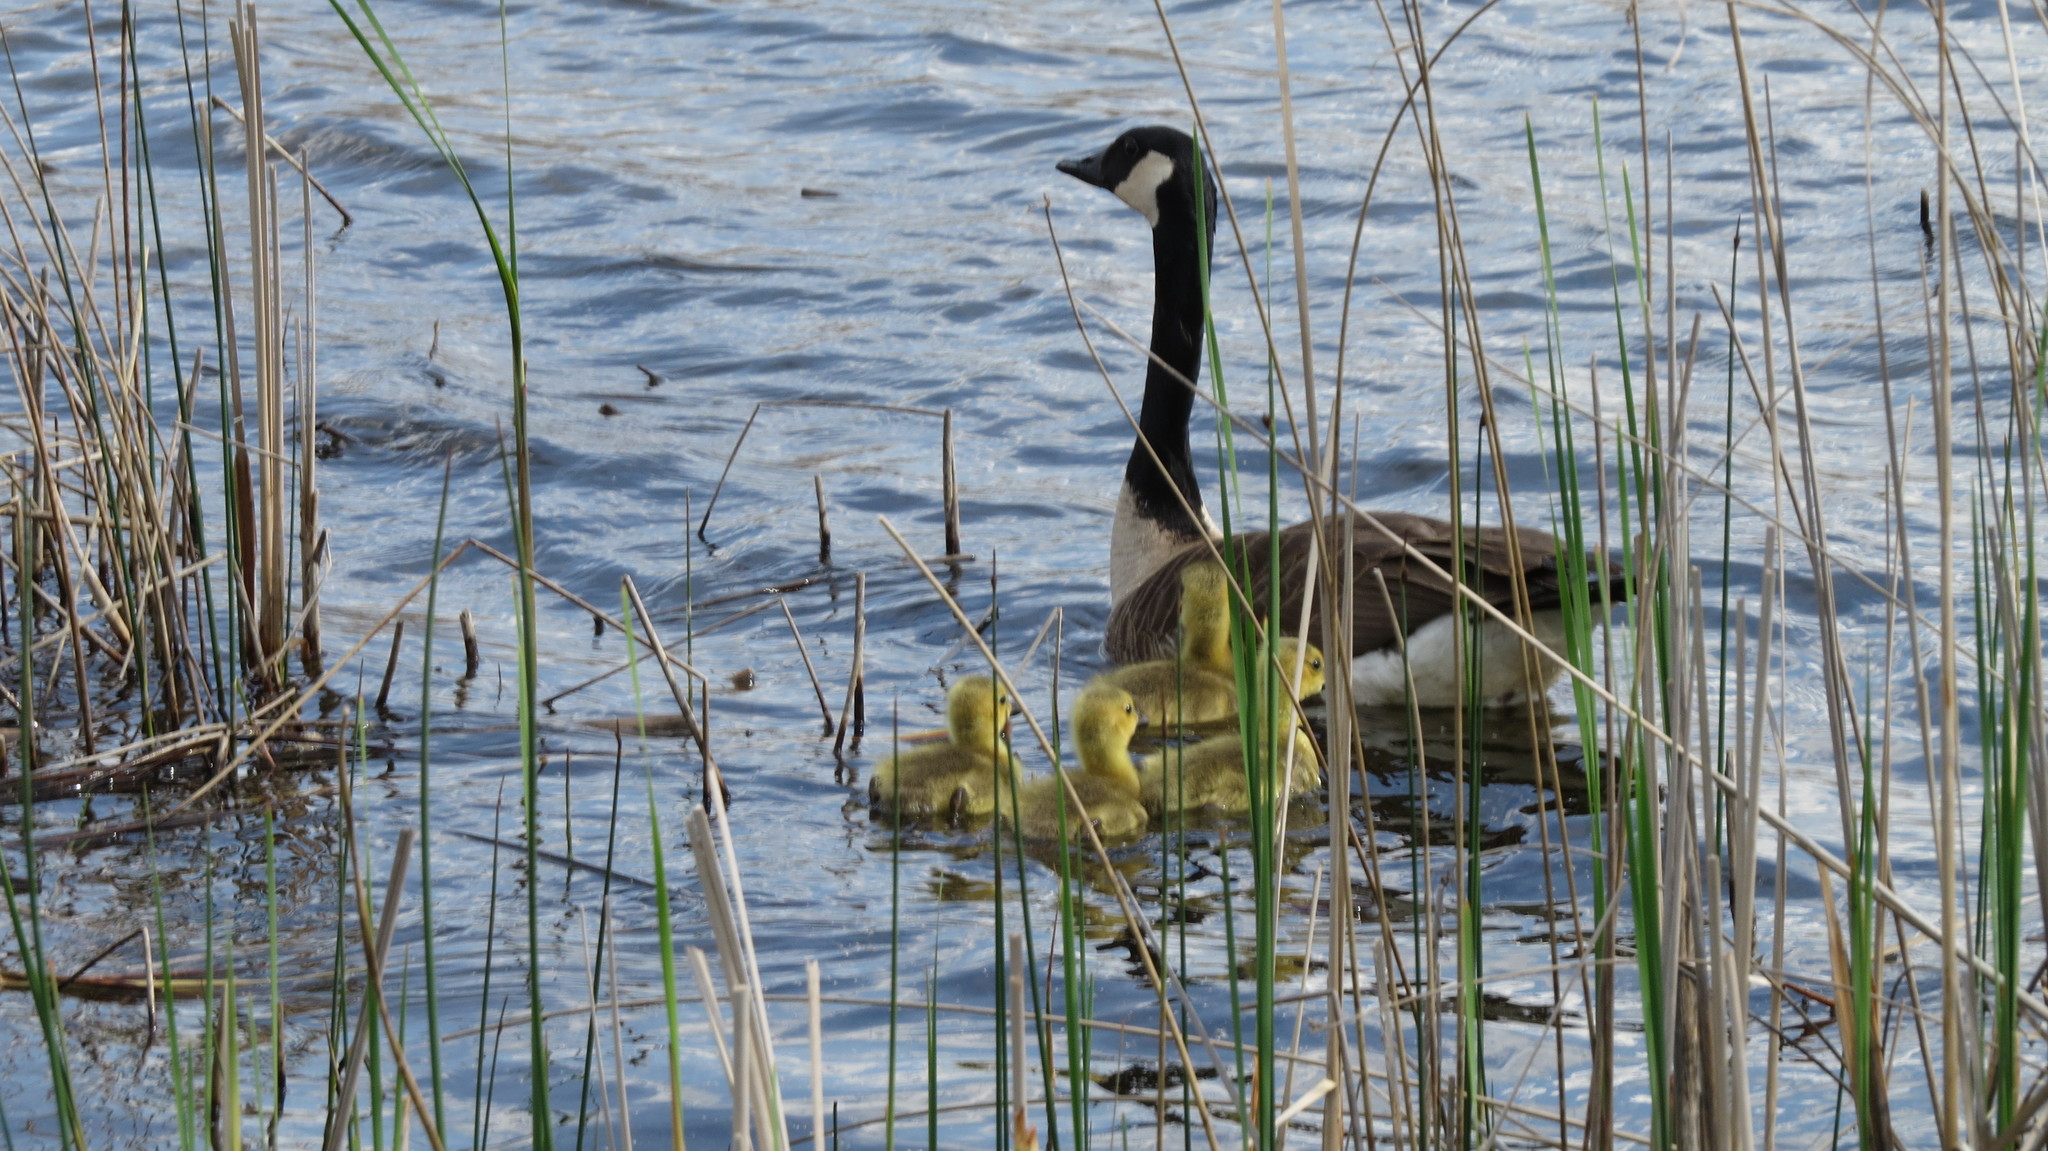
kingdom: Animalia
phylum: Chordata
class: Aves
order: Anseriformes
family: Anatidae
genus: Branta
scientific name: Branta canadensis
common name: Canada goose
